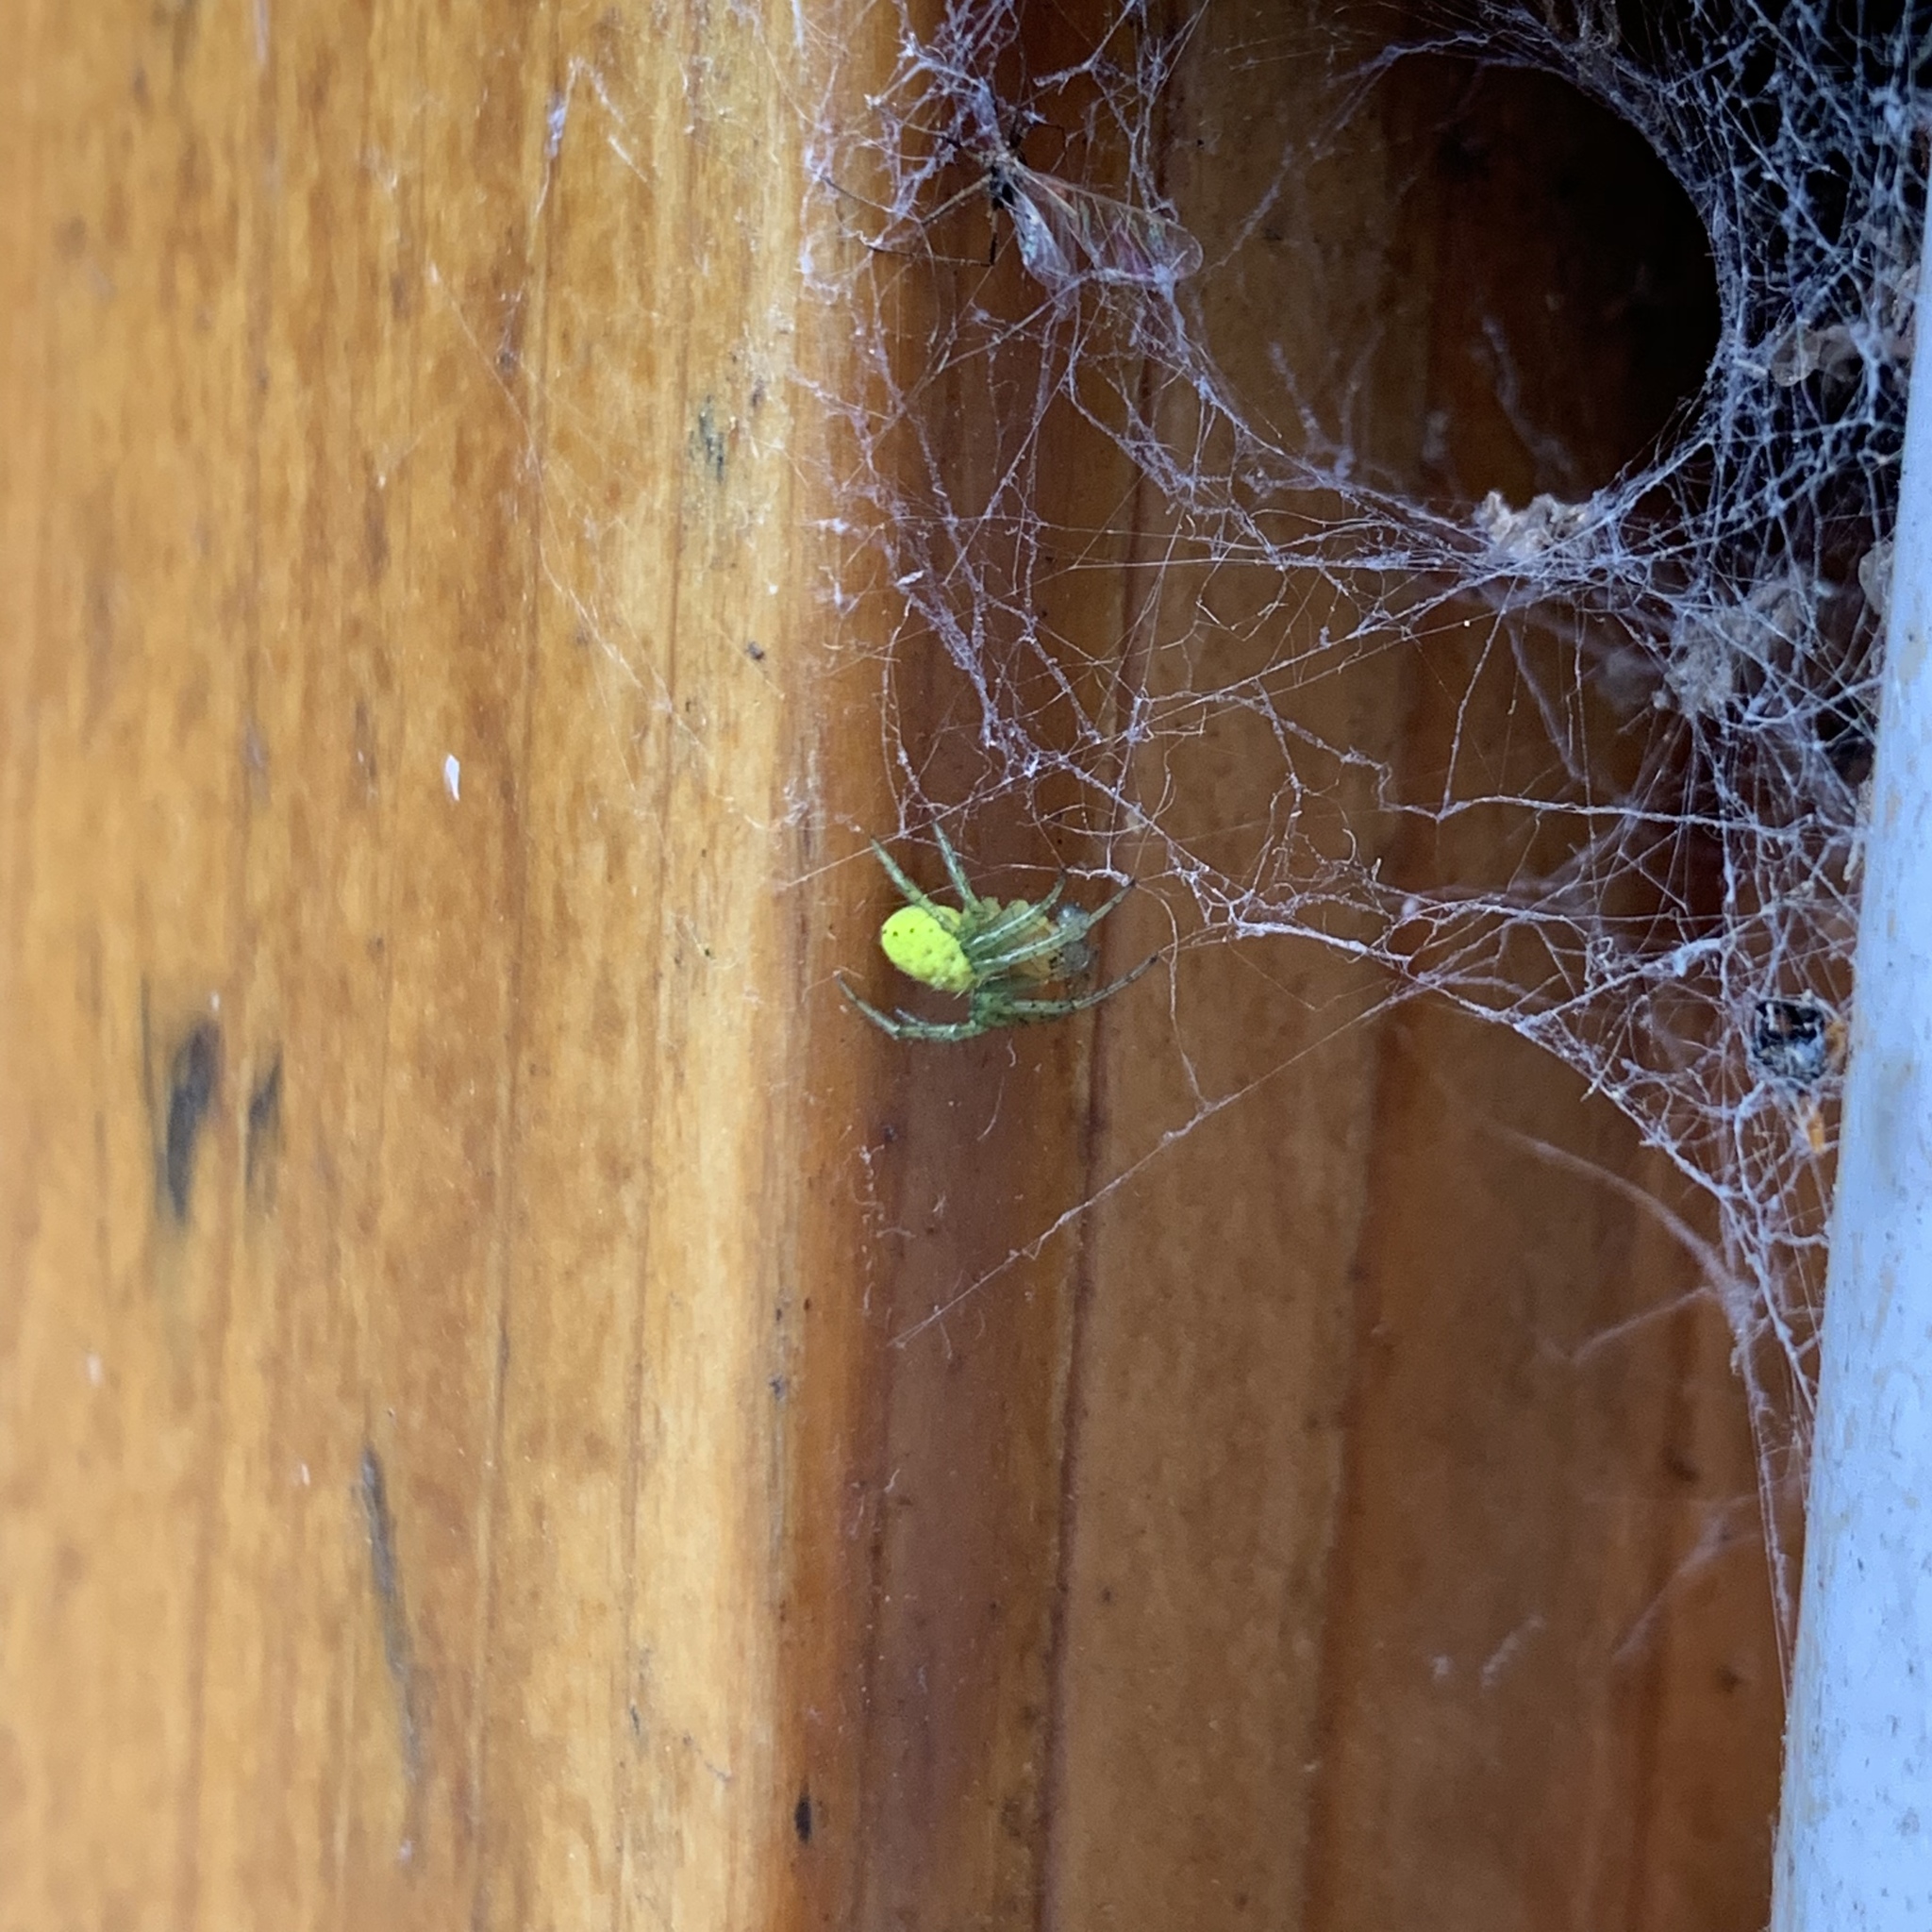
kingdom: Animalia
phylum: Arthropoda
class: Arachnida
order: Araneae
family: Araneidae
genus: Araniella
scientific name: Araniella cucurbitina
